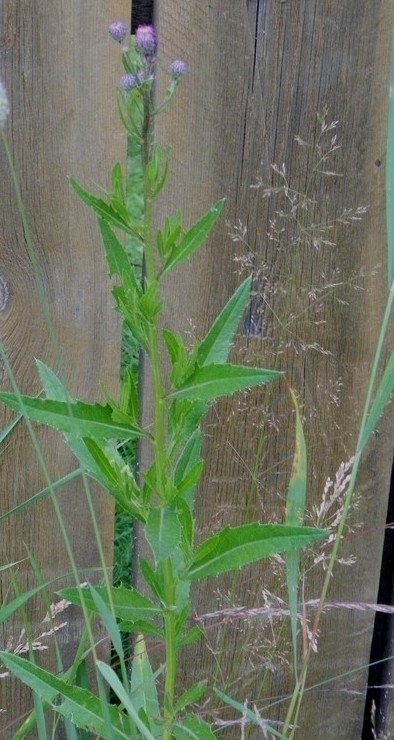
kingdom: Plantae
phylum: Tracheophyta
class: Magnoliopsida
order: Asterales
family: Asteraceae
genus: Cirsium
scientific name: Cirsium arvense
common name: Creeping thistle
